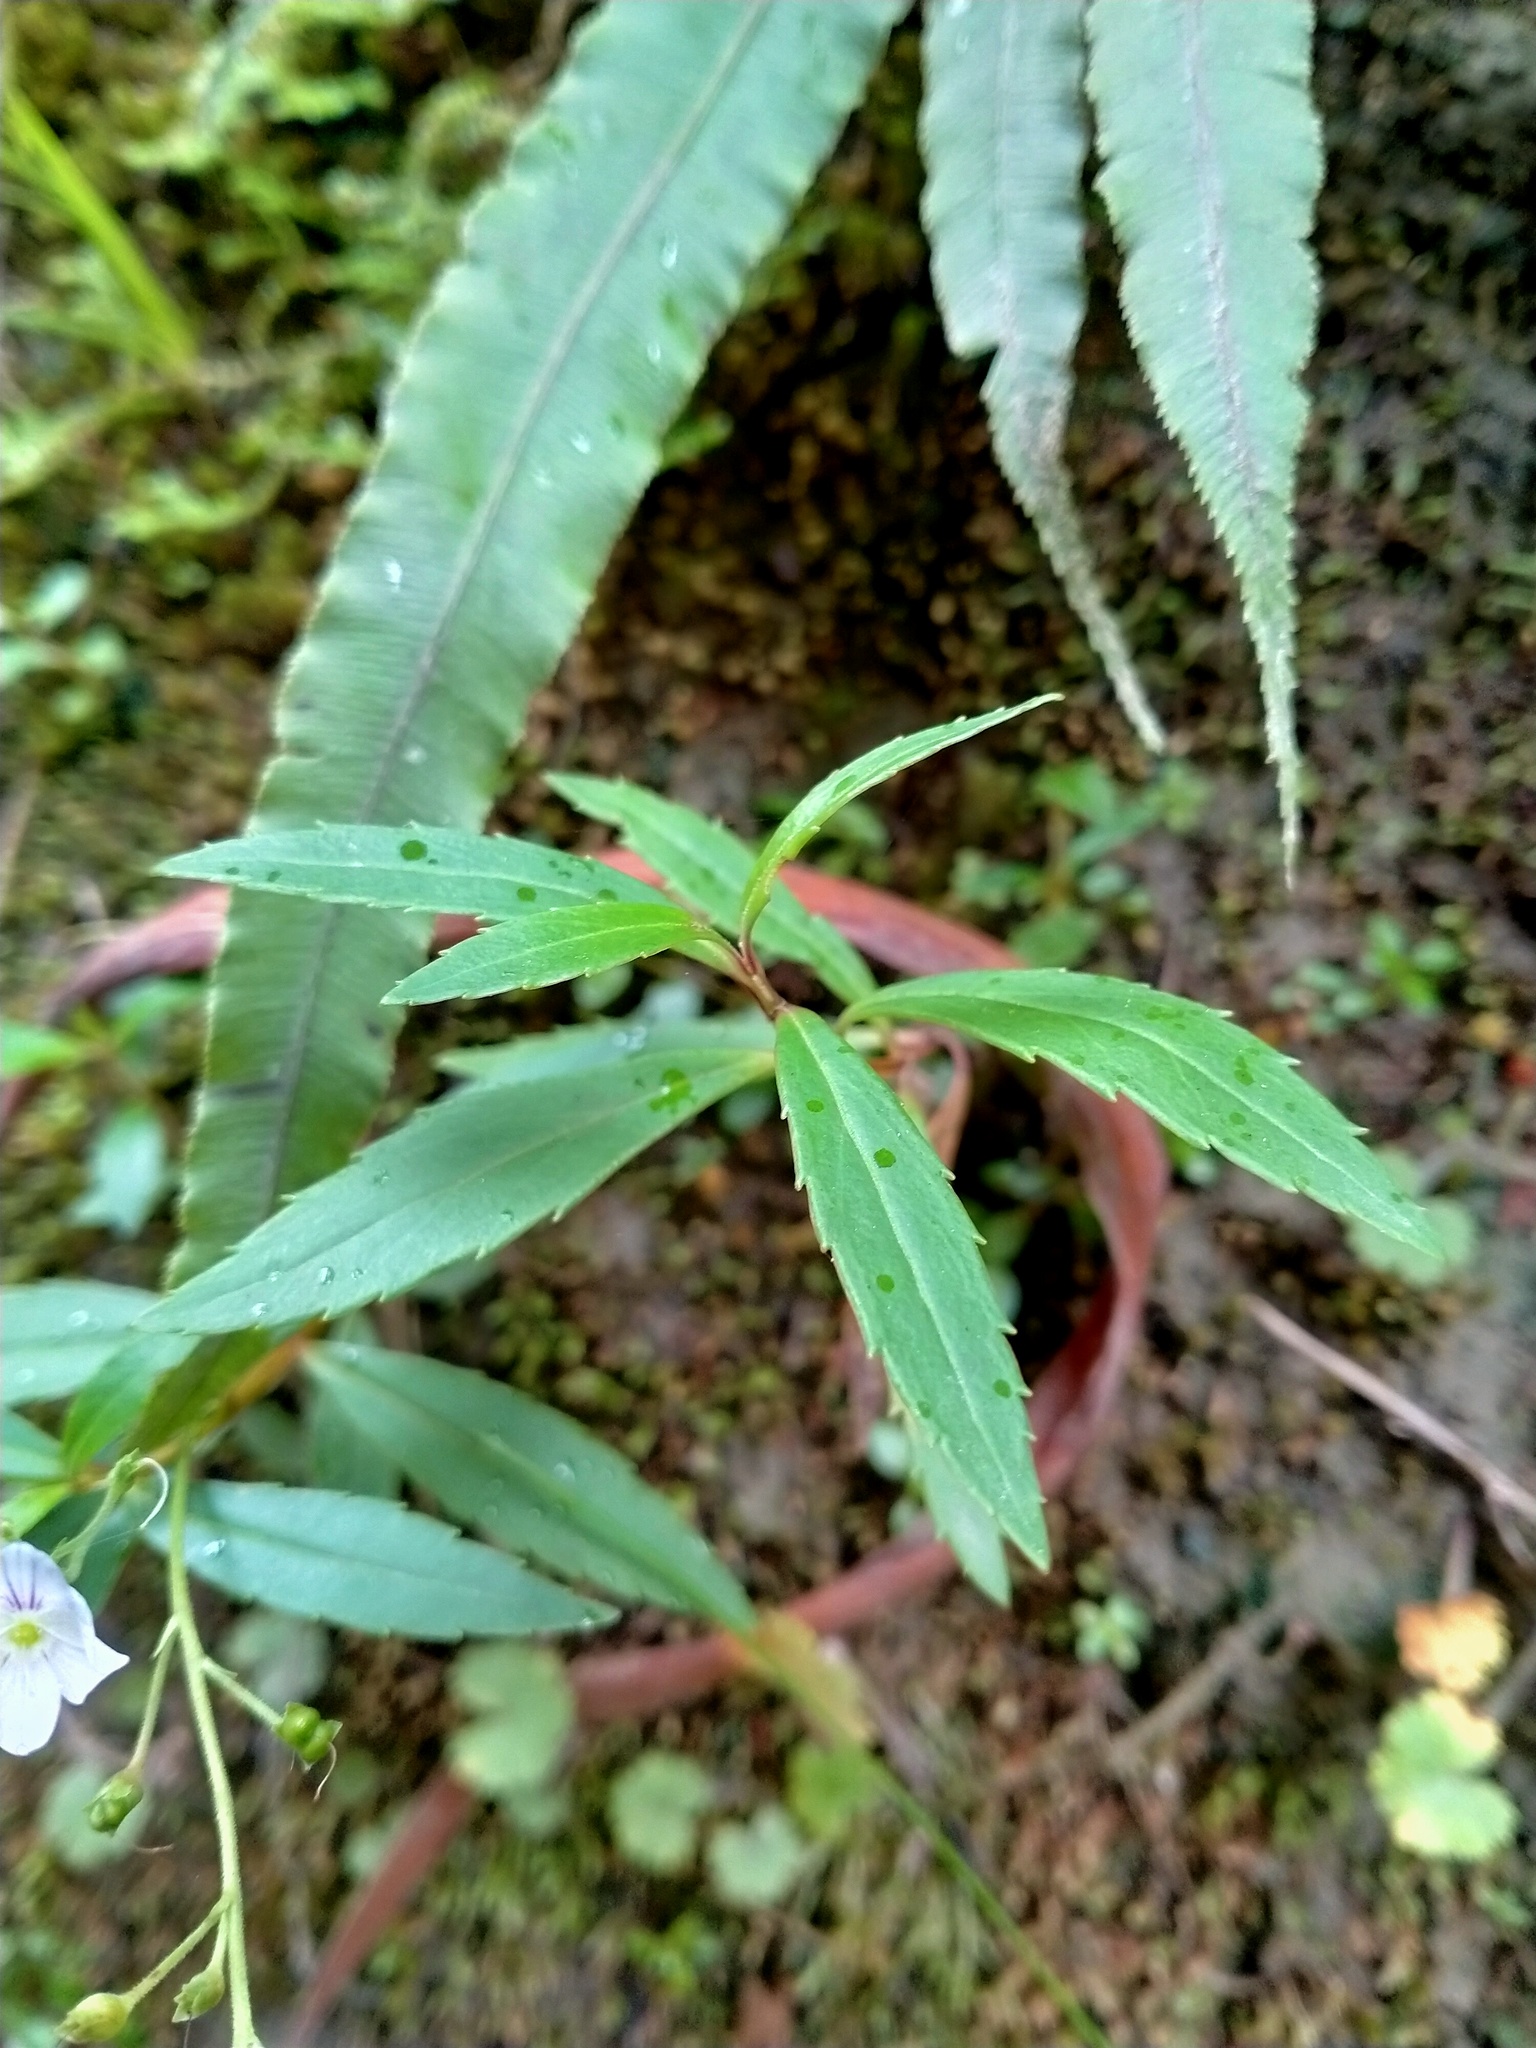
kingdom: Plantae
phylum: Tracheophyta
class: Magnoliopsida
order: Lamiales
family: Plantaginaceae
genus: Veronica
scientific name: Veronica lanceolata
